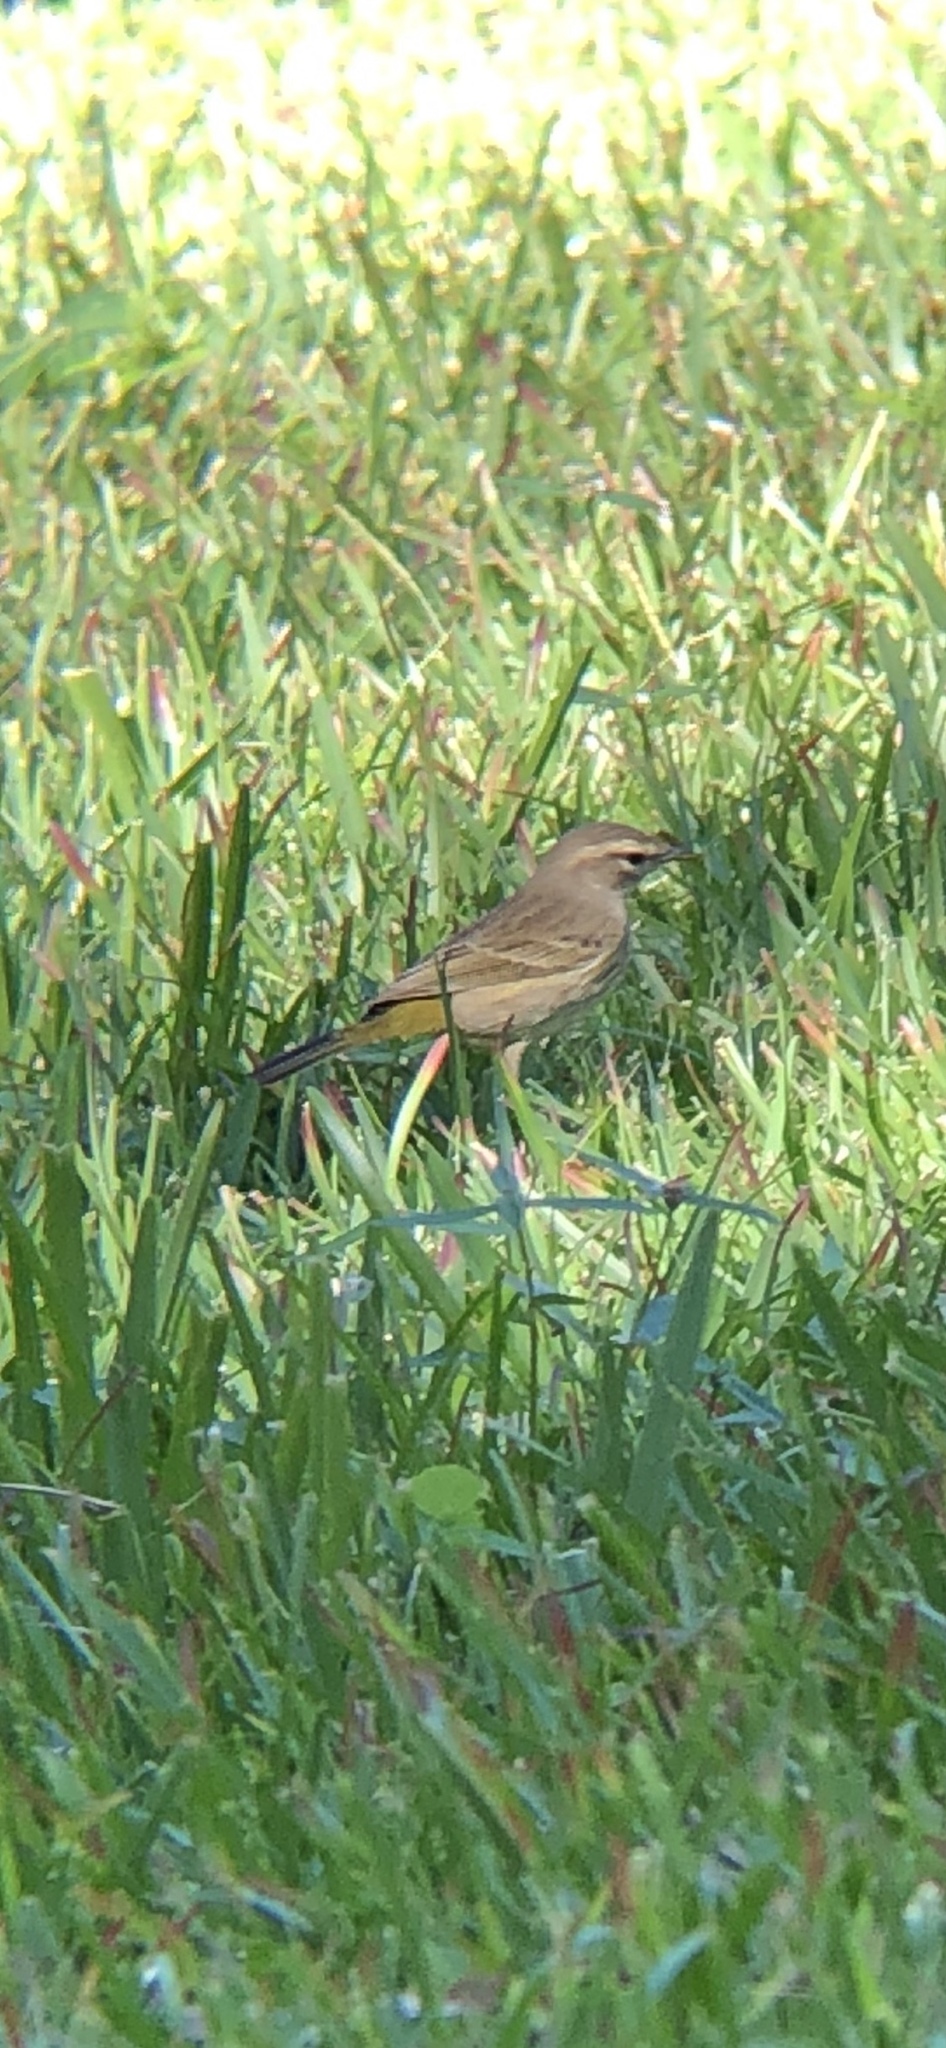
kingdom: Animalia
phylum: Chordata
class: Aves
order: Passeriformes
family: Parulidae
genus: Setophaga
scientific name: Setophaga palmarum
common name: Palm warbler
